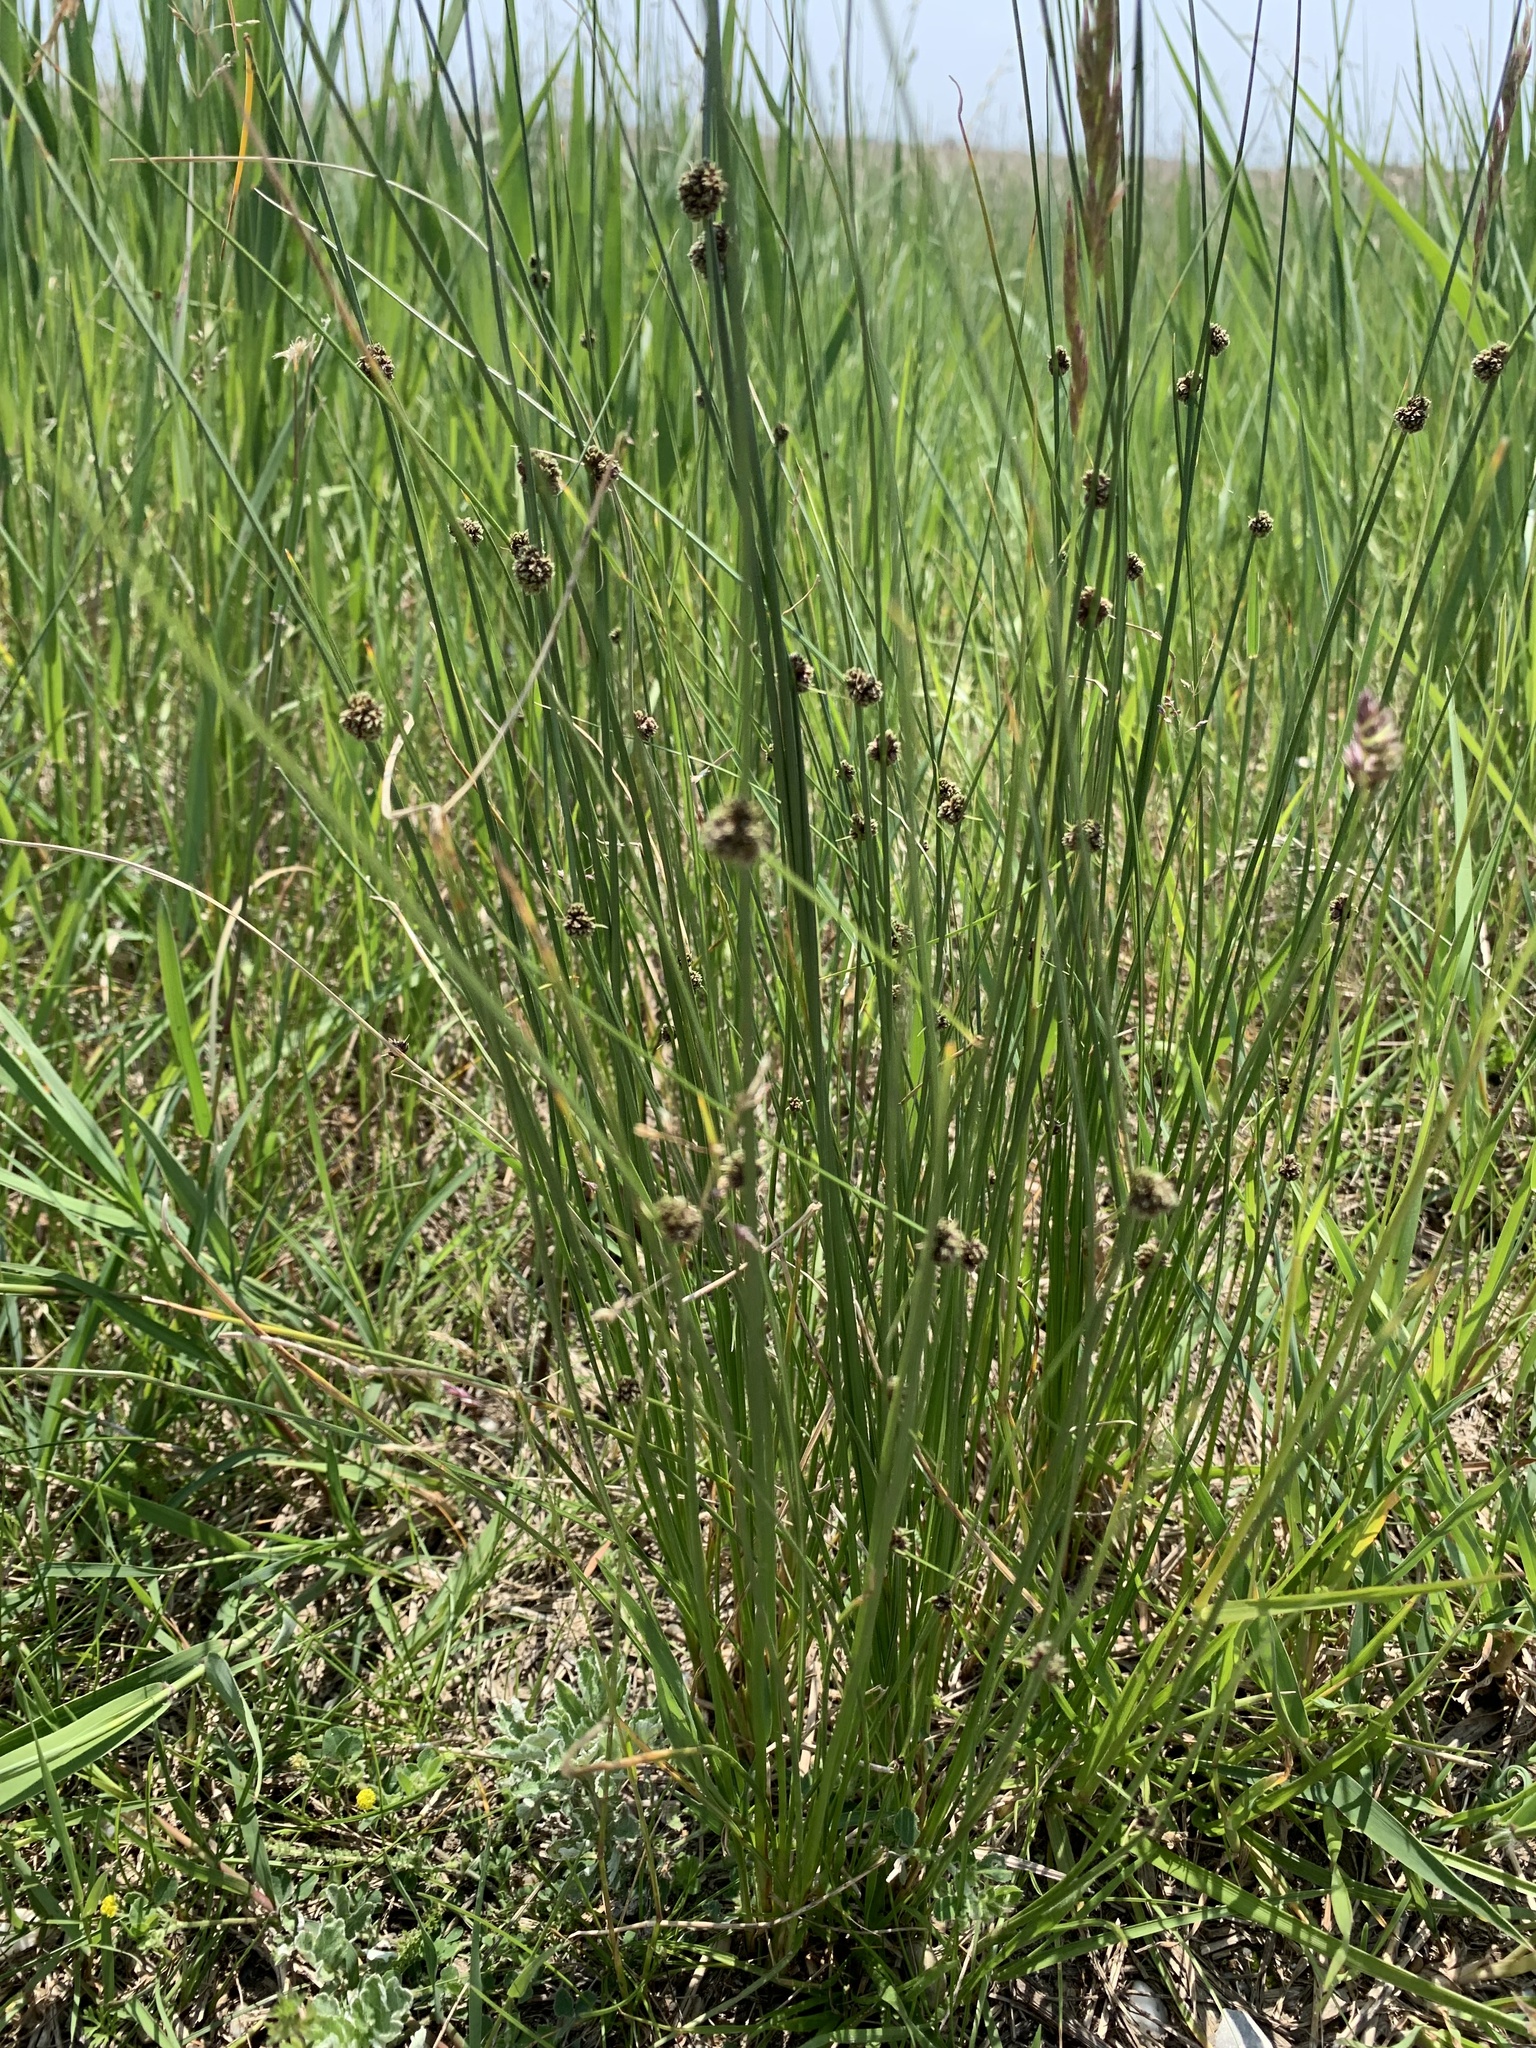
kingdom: Plantae
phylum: Tracheophyta
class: Liliopsida
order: Poales
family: Cyperaceae
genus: Scirpoides
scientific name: Scirpoides holoschoenus
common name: Round-headed club-rush
